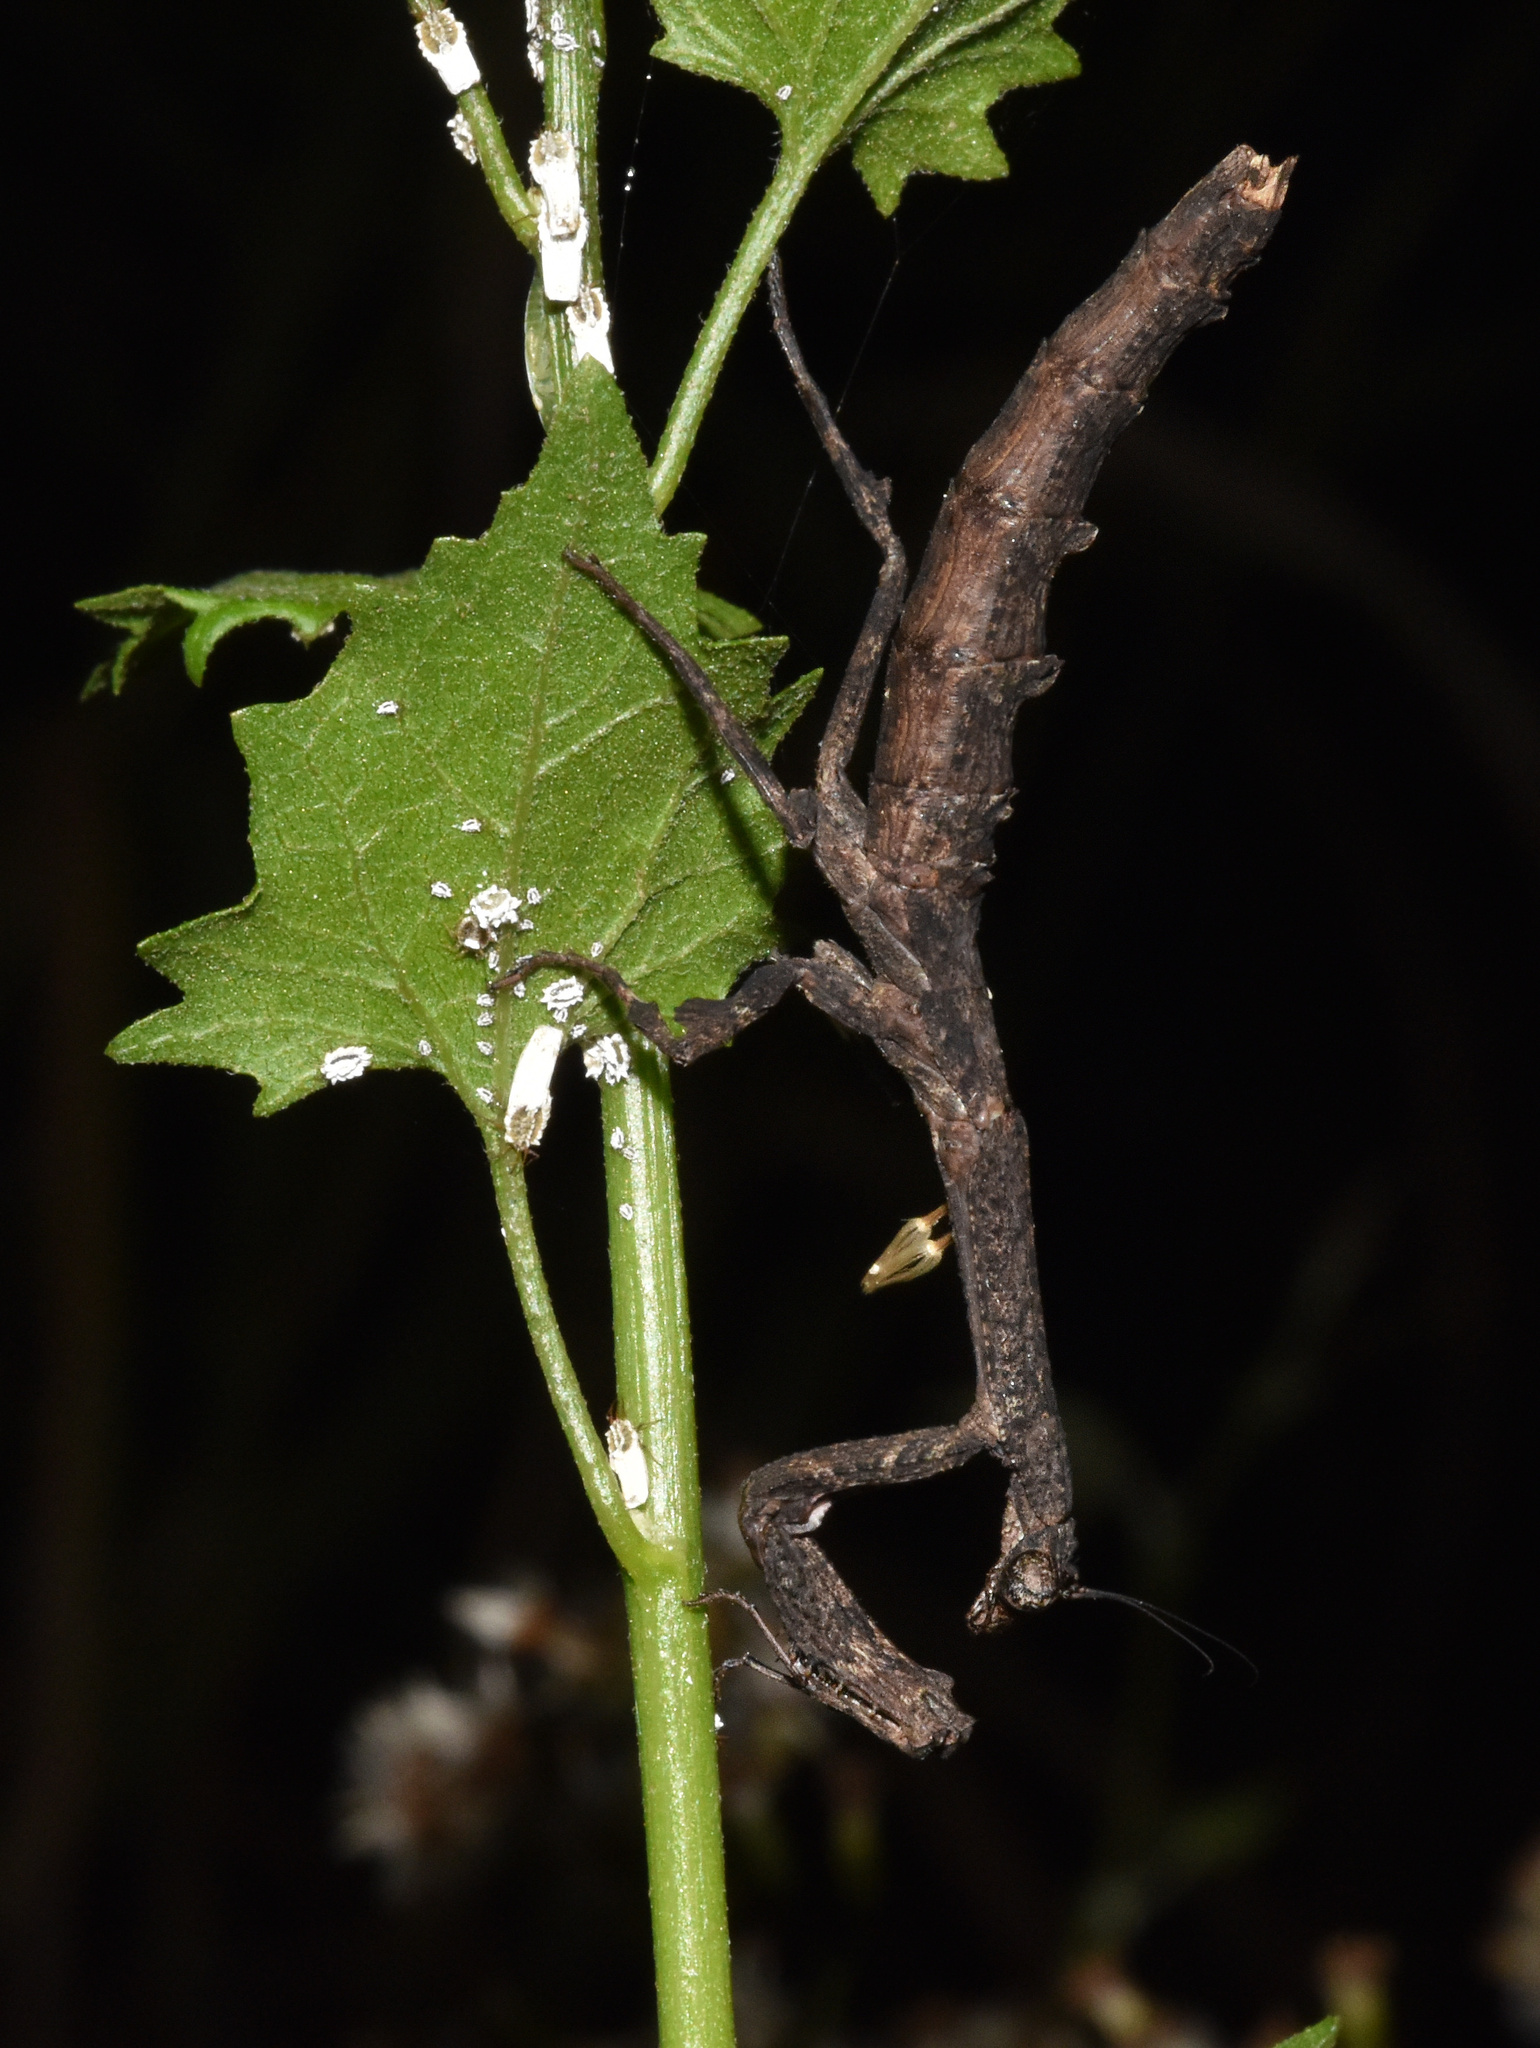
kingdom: Animalia
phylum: Arthropoda
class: Insecta
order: Mantodea
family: Deroplatyidae
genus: Popa
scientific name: Popa spurca
